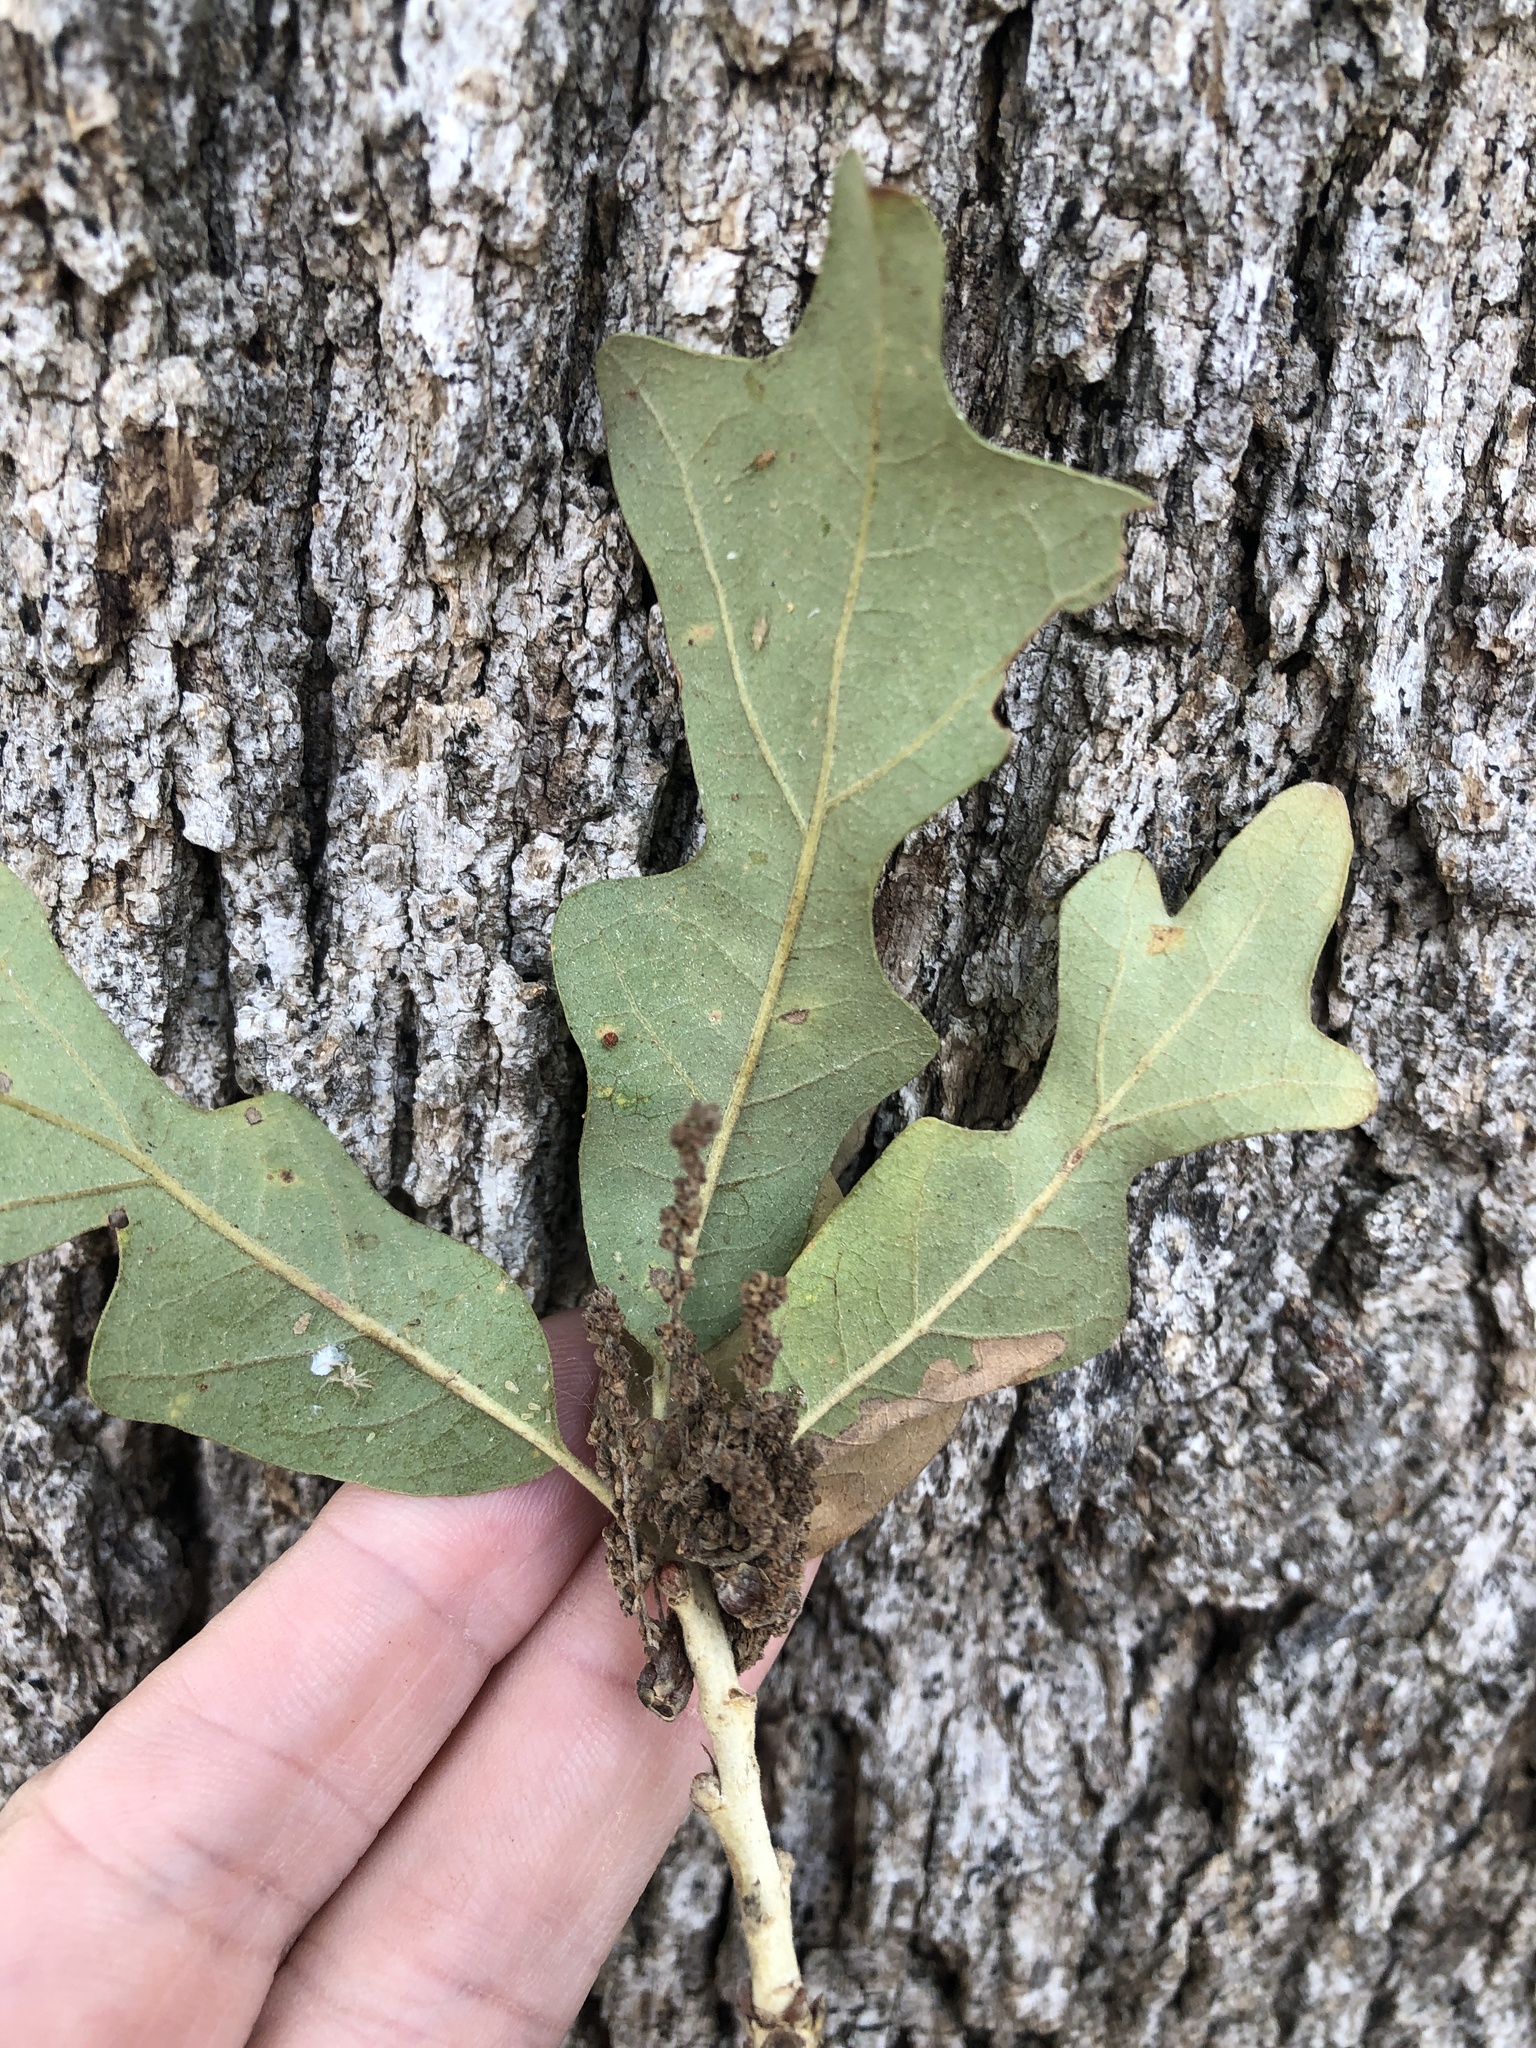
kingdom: Plantae
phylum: Tracheophyta
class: Magnoliopsida
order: Fagales
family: Fagaceae
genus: Quercus
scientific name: Quercus stellata
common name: Post oak
